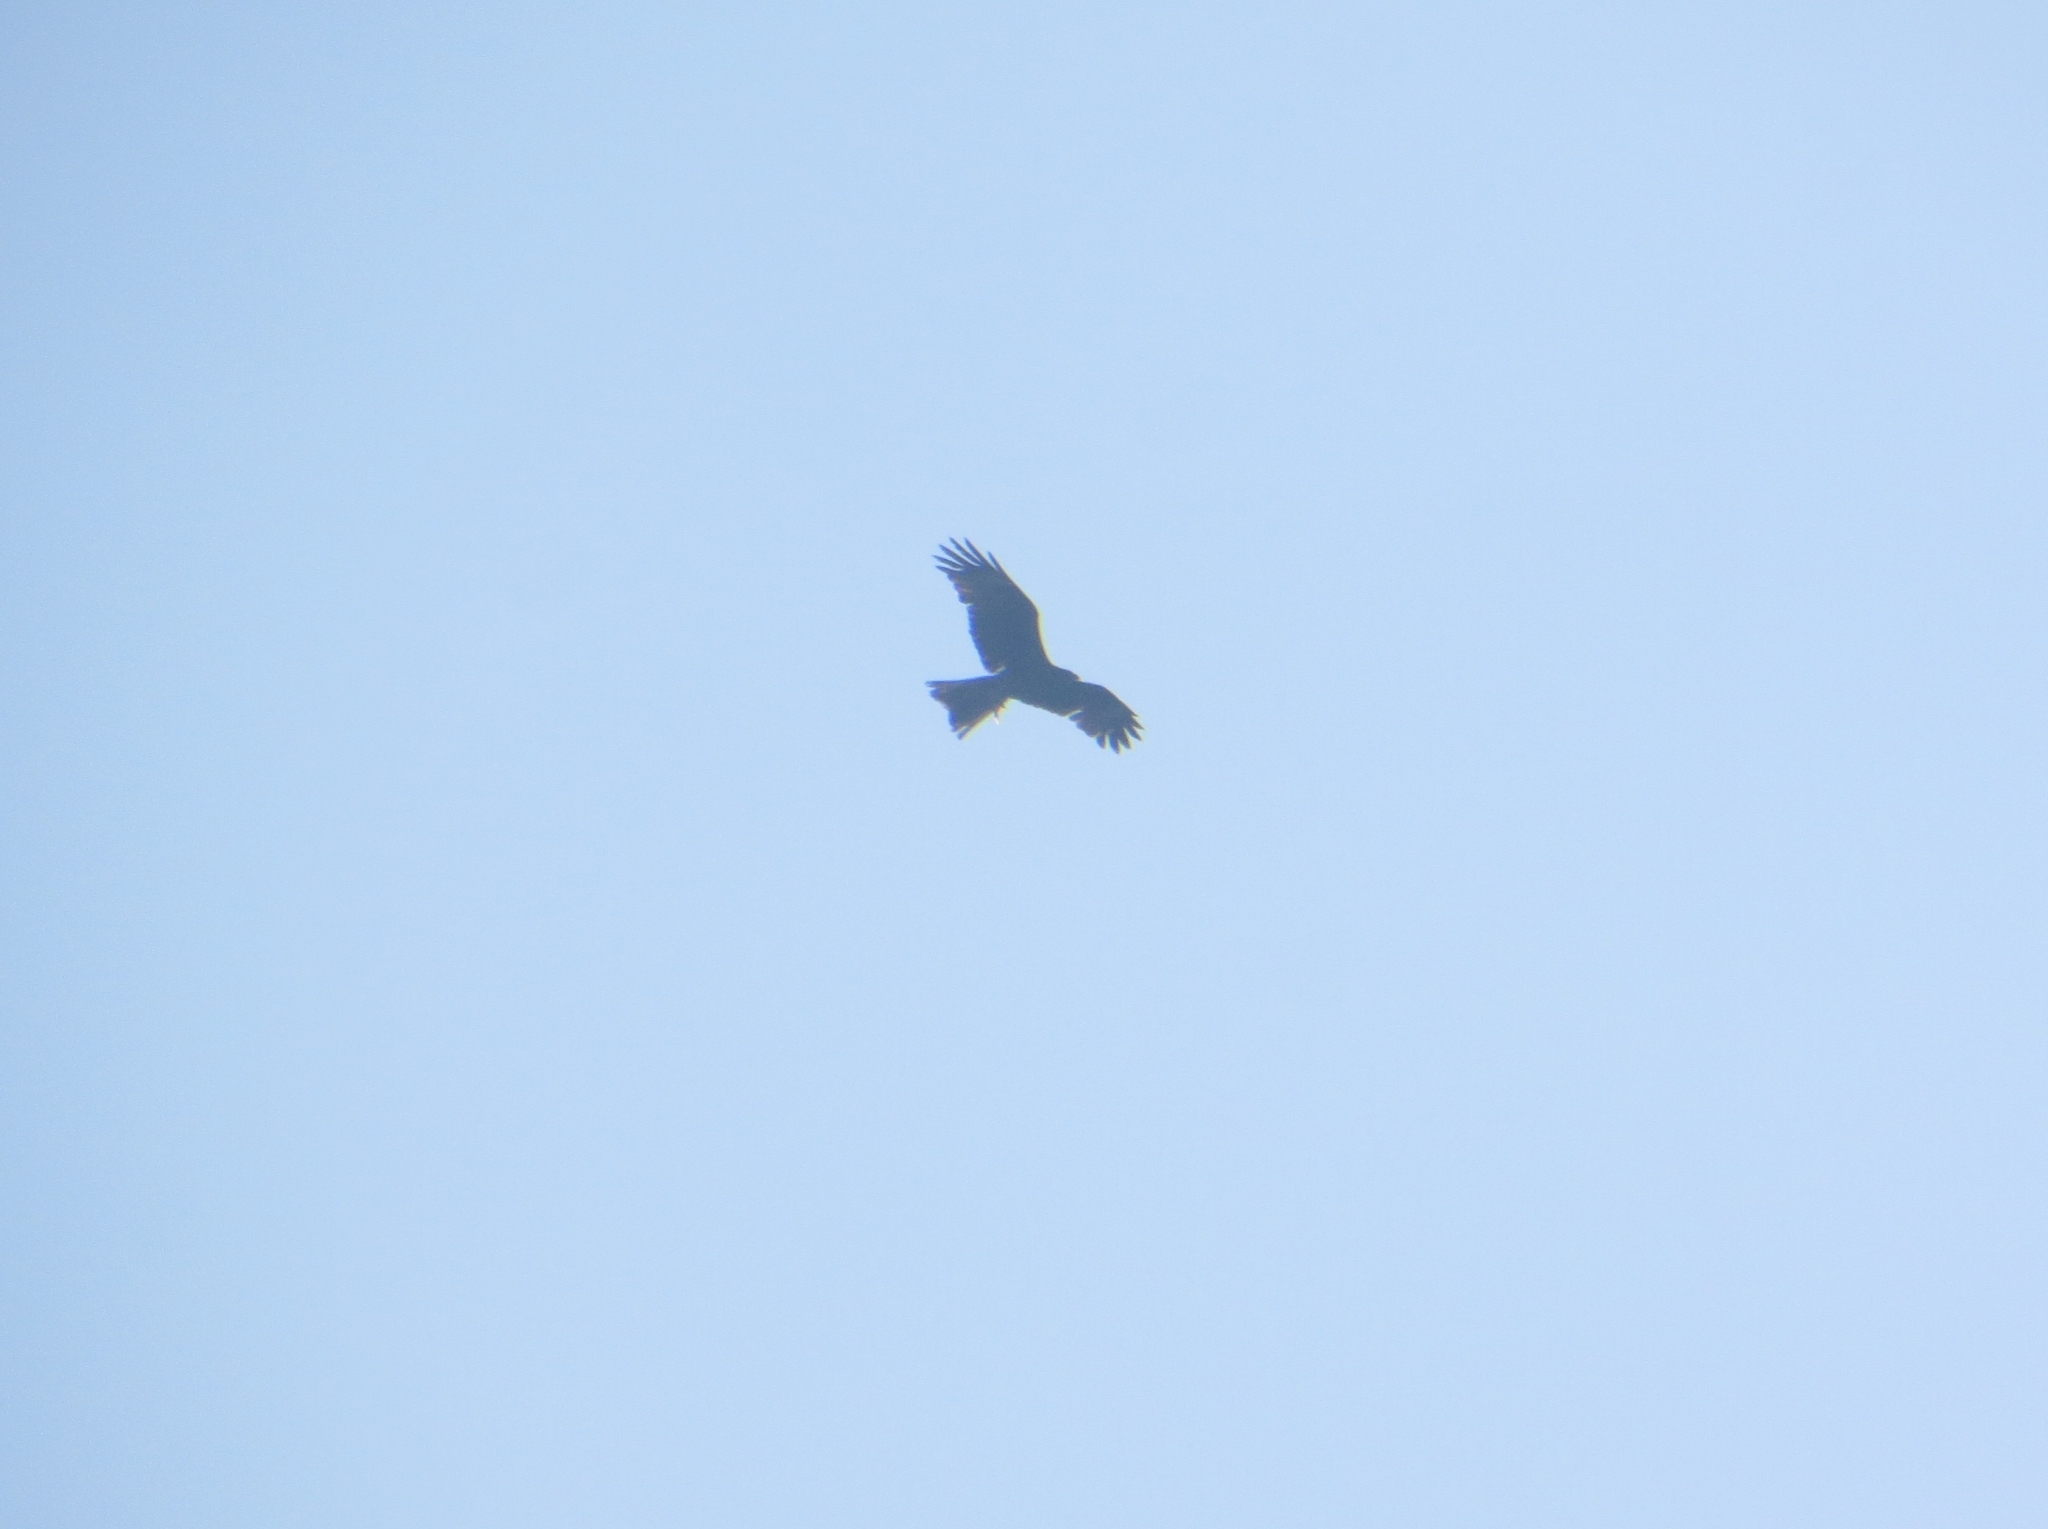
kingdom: Animalia
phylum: Chordata
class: Aves
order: Accipitriformes
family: Accipitridae
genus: Milvus
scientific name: Milvus migrans
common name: Black kite
